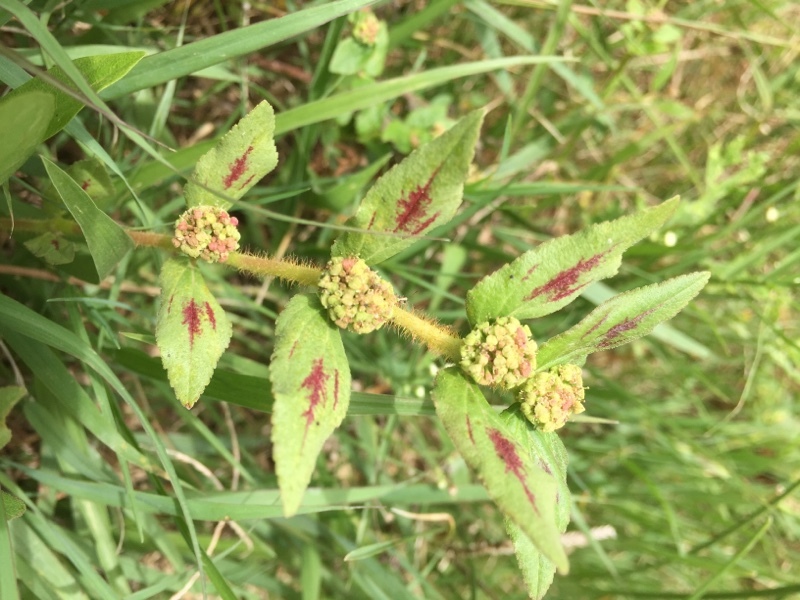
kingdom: Plantae
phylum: Tracheophyta
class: Magnoliopsida
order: Malpighiales
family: Euphorbiaceae
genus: Euphorbia
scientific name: Euphorbia hirta
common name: Pillpod sandmat
